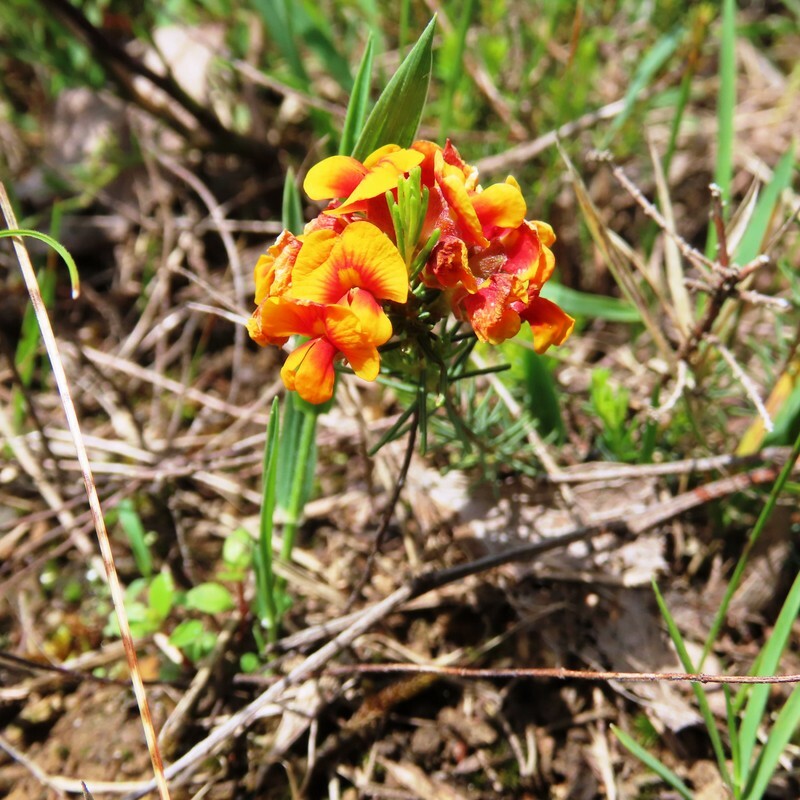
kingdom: Plantae
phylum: Tracheophyta
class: Magnoliopsida
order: Fabales
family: Fabaceae
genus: Dillwynia
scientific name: Dillwynia cinerascens
